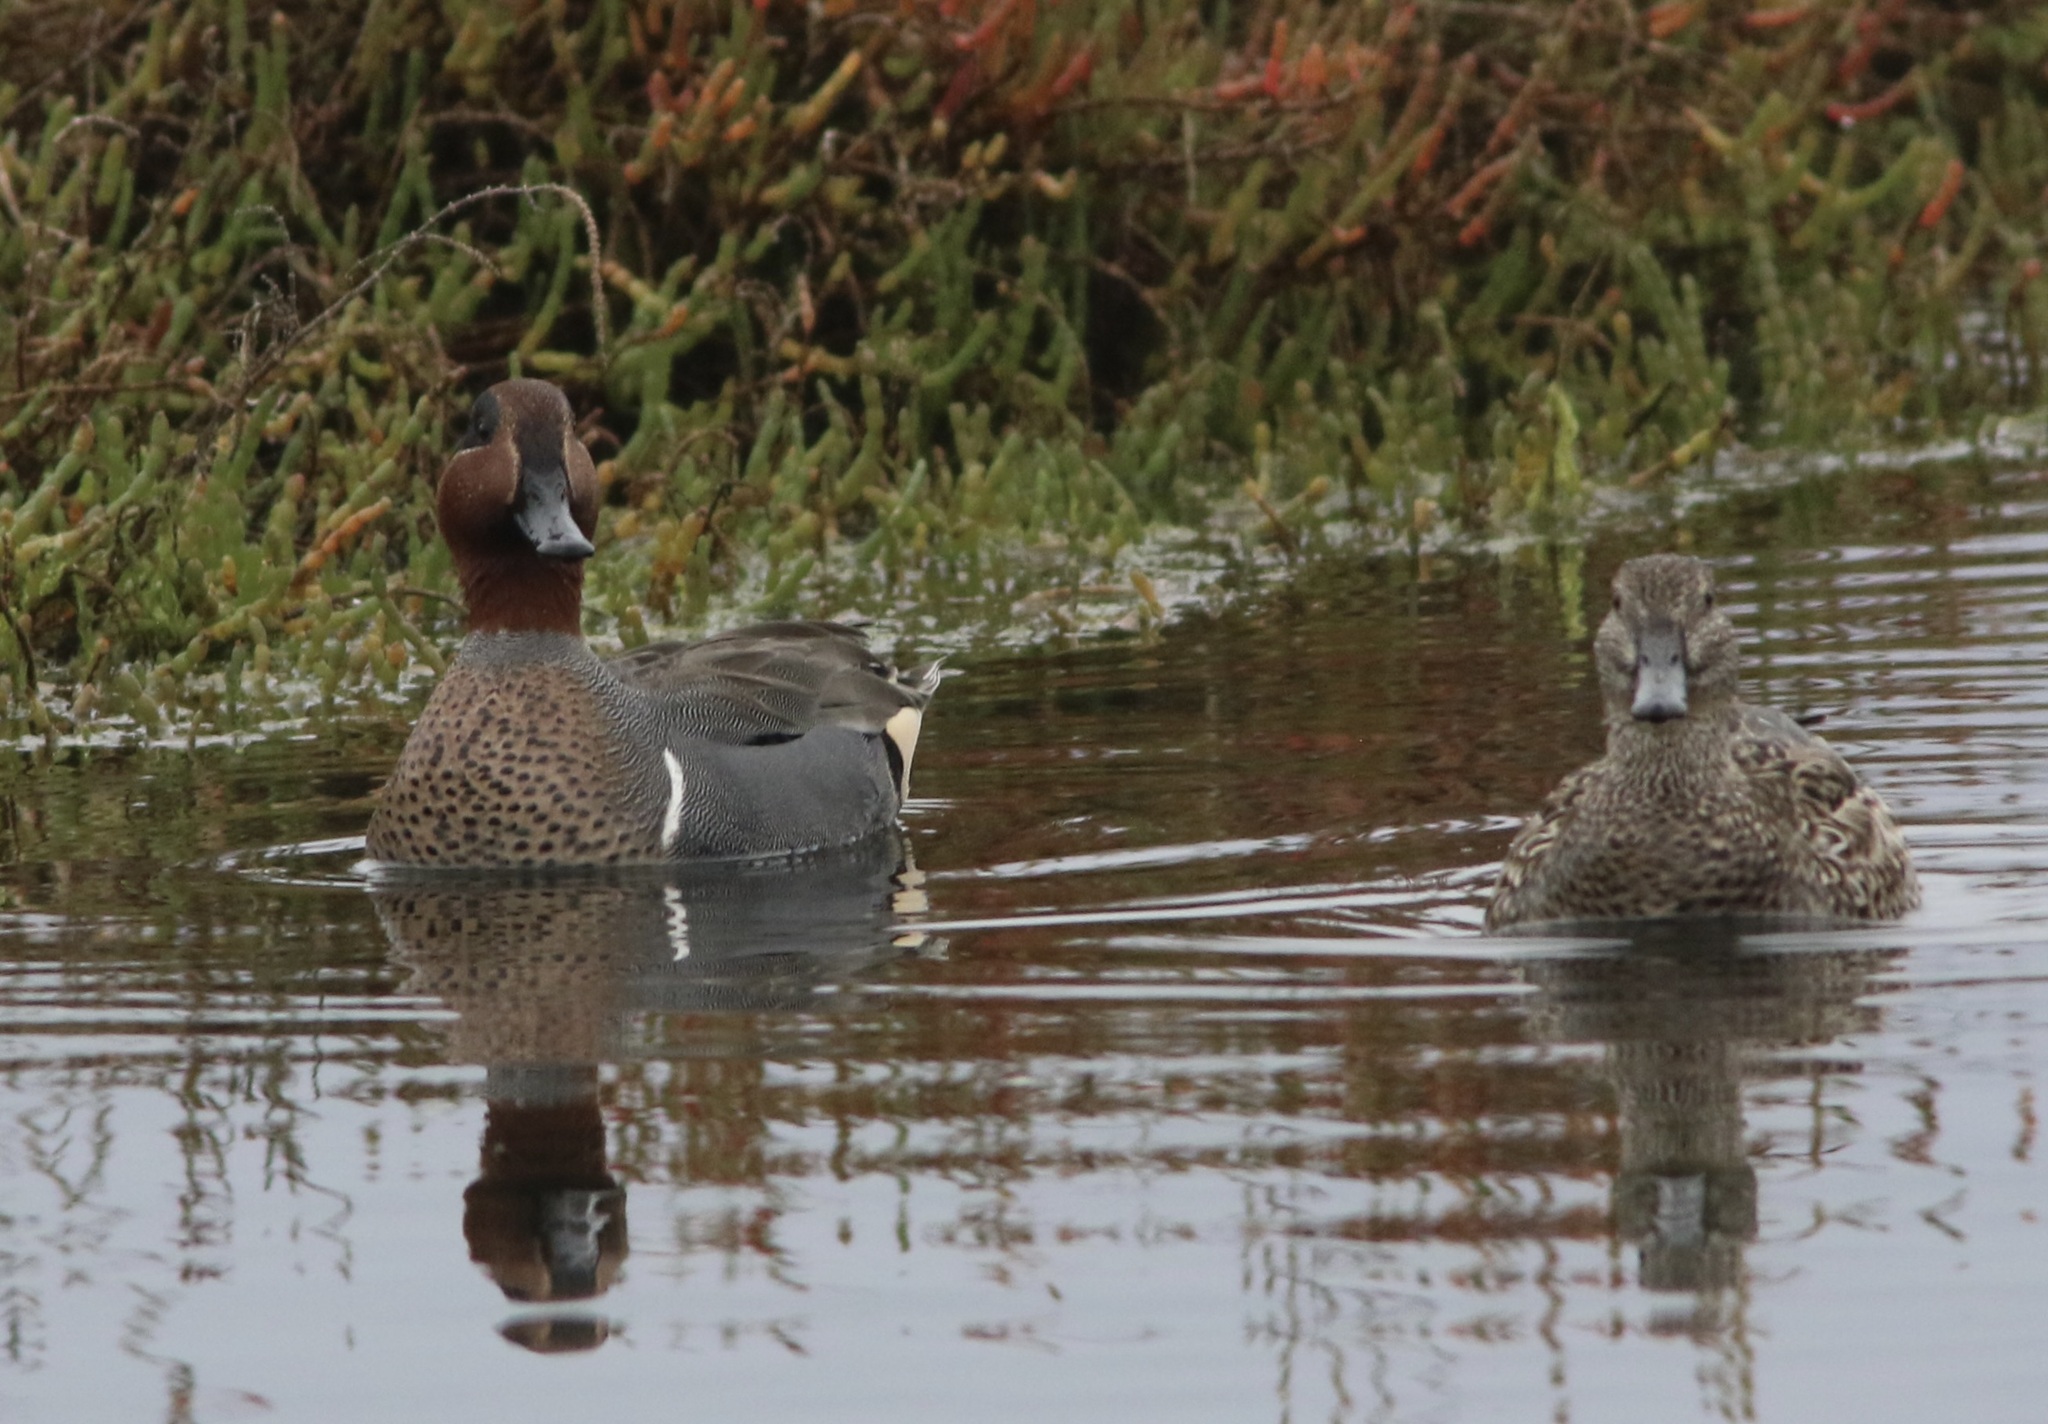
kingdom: Animalia
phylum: Chordata
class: Aves
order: Anseriformes
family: Anatidae
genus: Anas
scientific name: Anas crecca
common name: Eurasian teal
